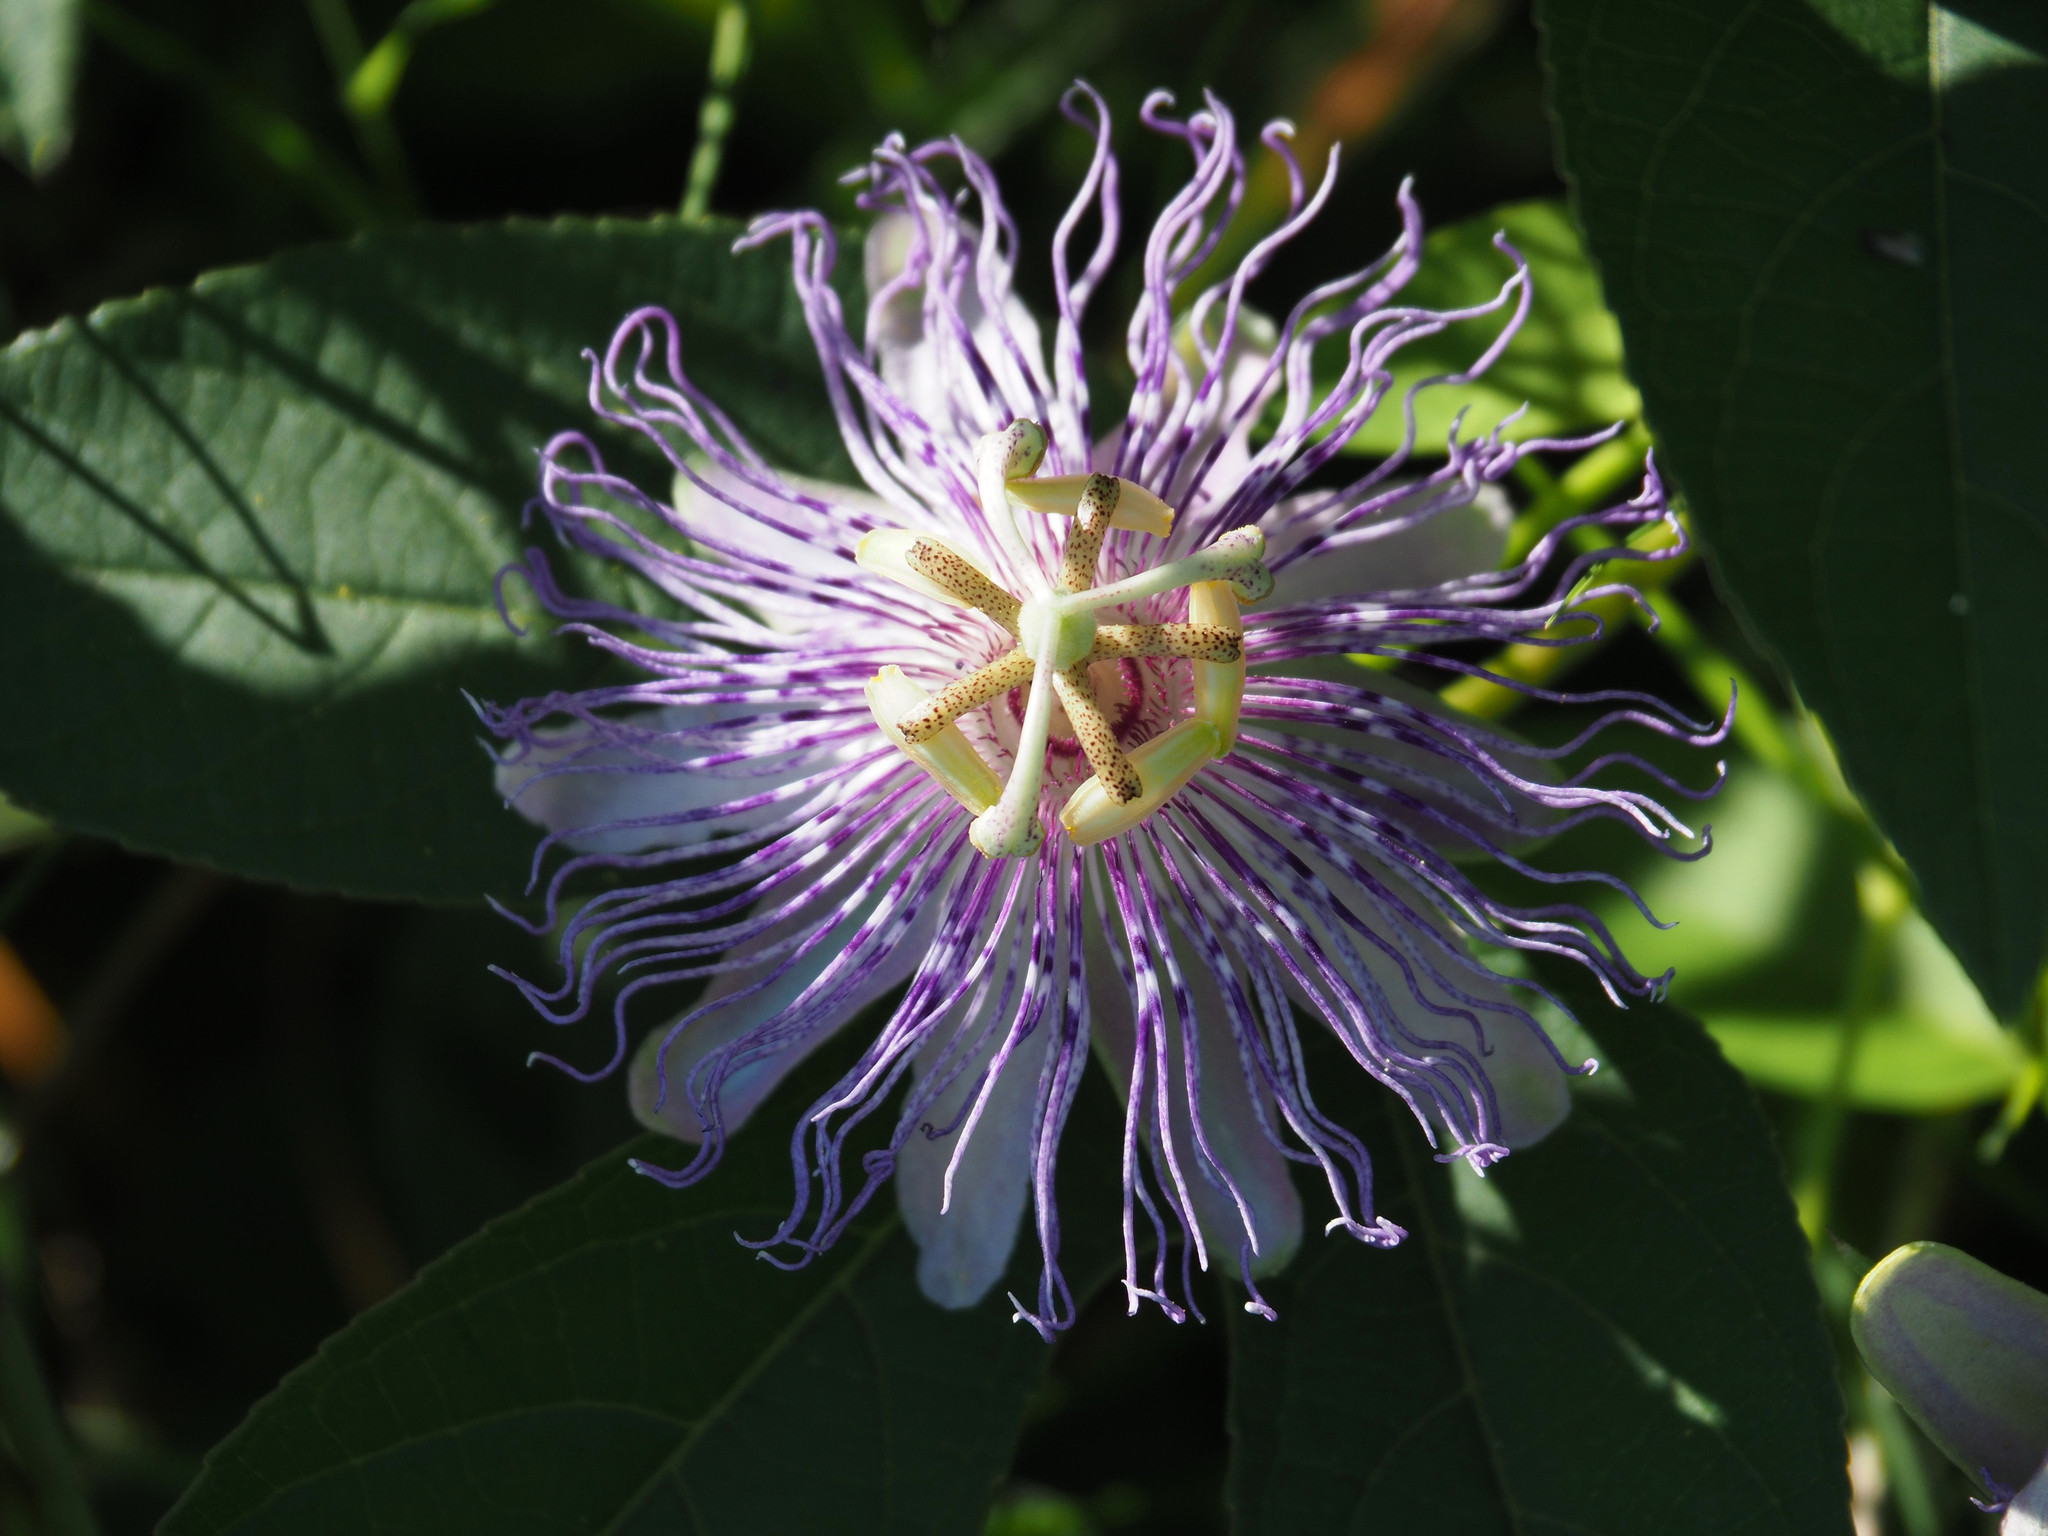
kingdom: Plantae
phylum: Tracheophyta
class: Magnoliopsida
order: Malpighiales
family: Passifloraceae
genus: Passiflora
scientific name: Passiflora incarnata
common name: Apricot-vine
